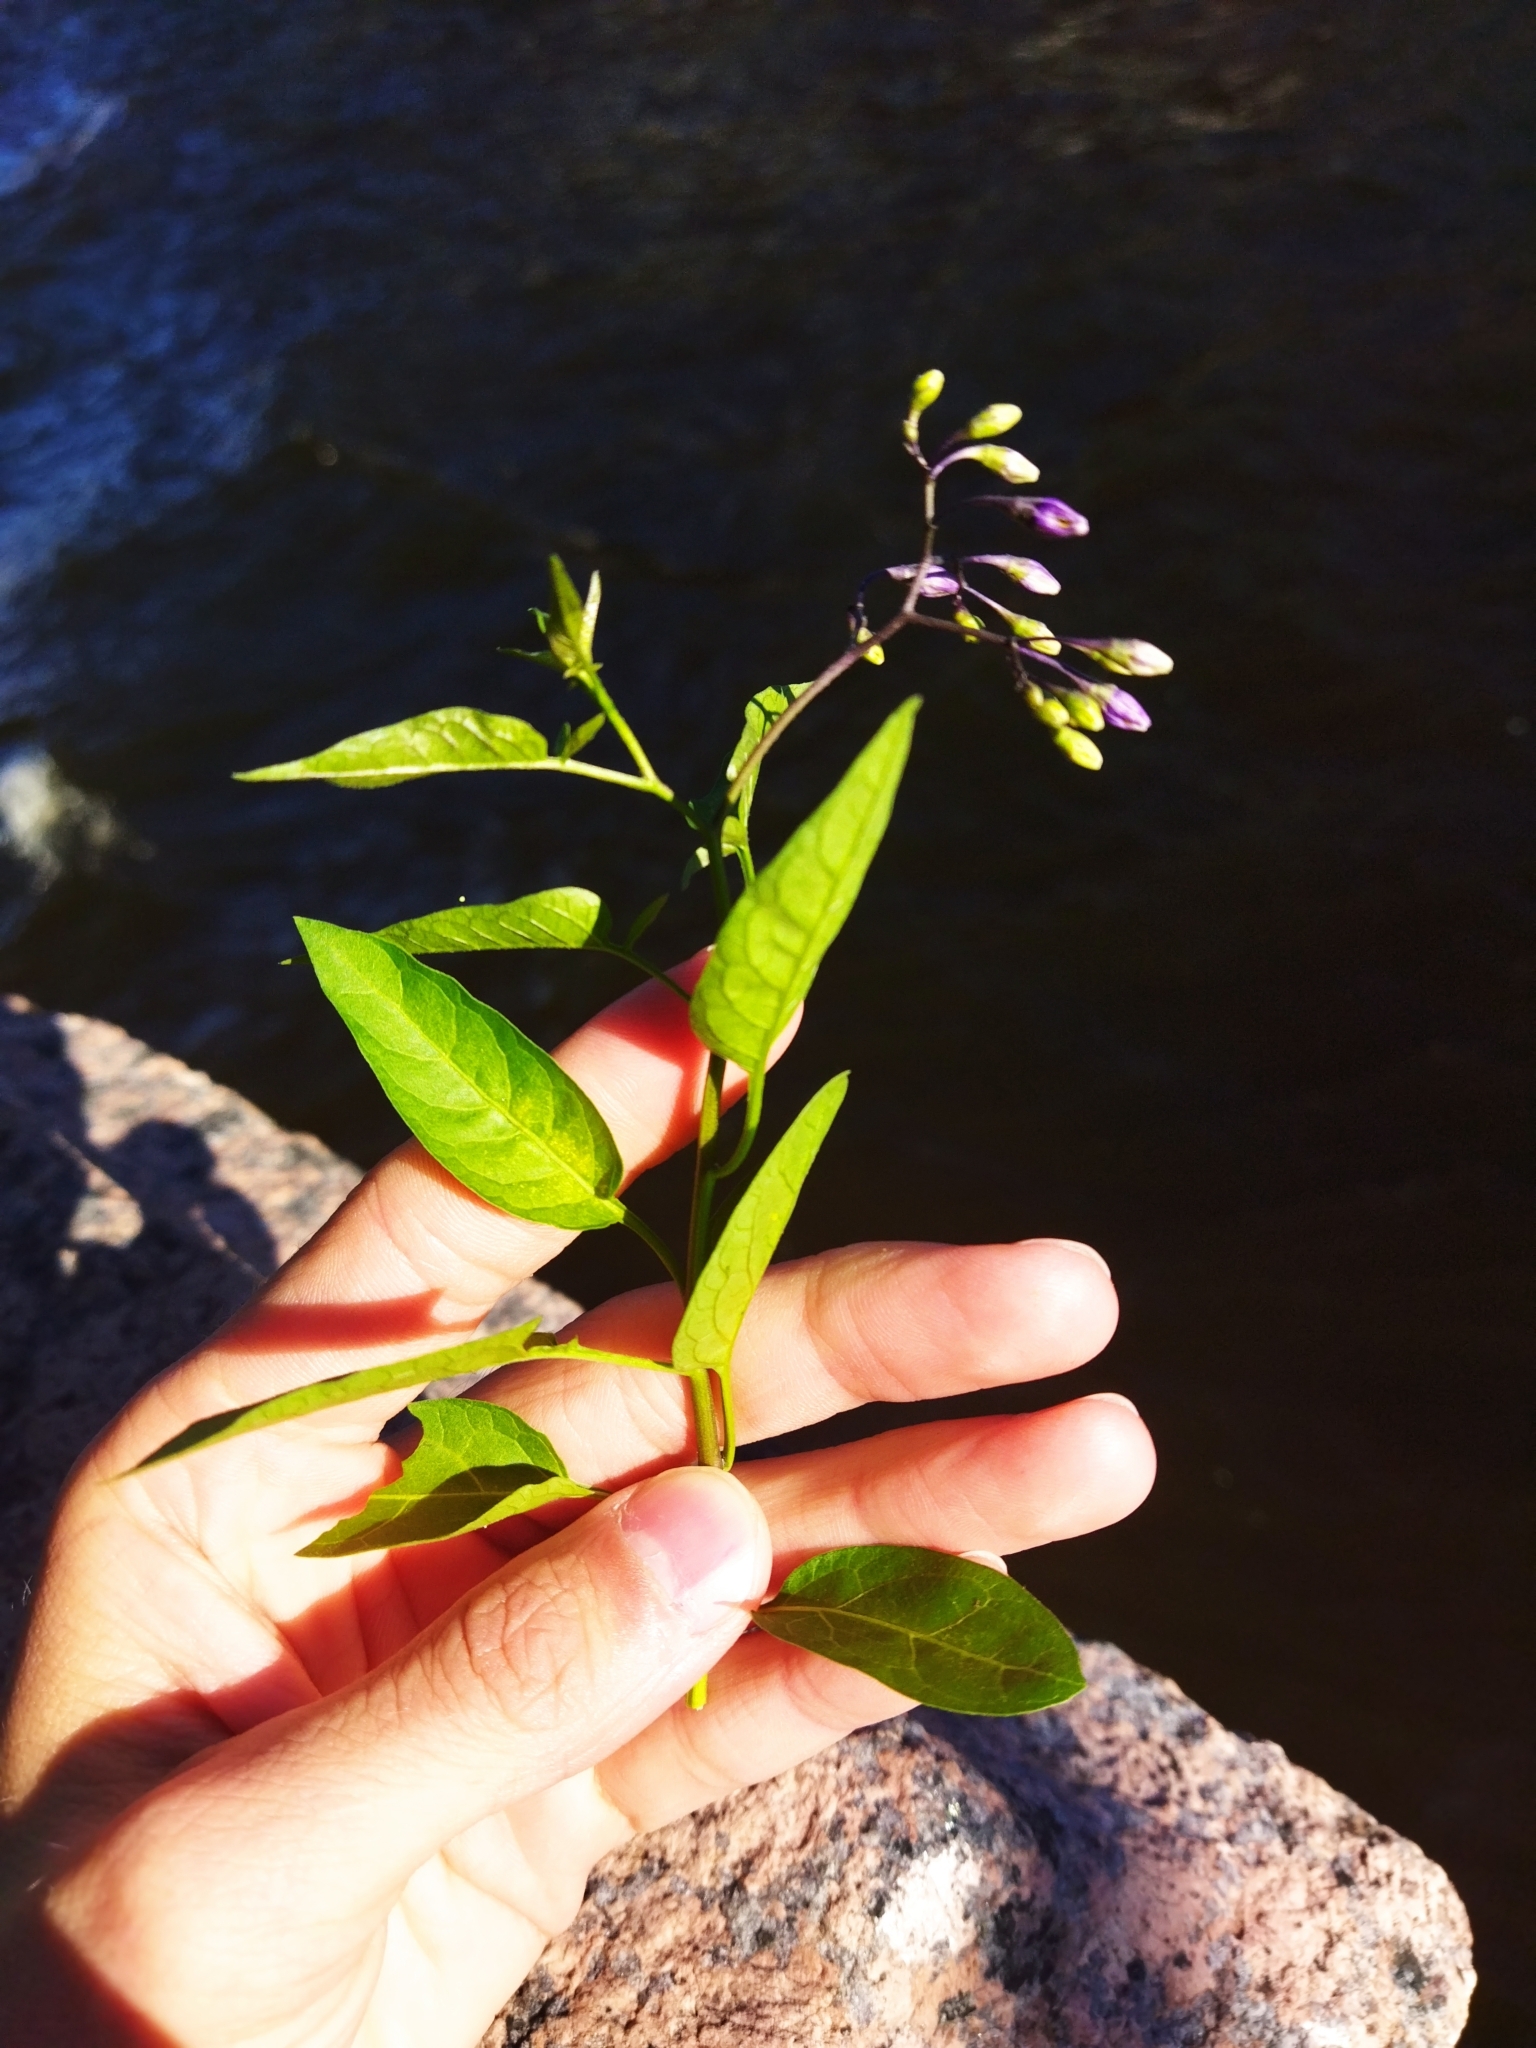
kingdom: Plantae
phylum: Tracheophyta
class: Magnoliopsida
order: Solanales
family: Solanaceae
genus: Solanum
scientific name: Solanum dulcamara
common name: Climbing nightshade
